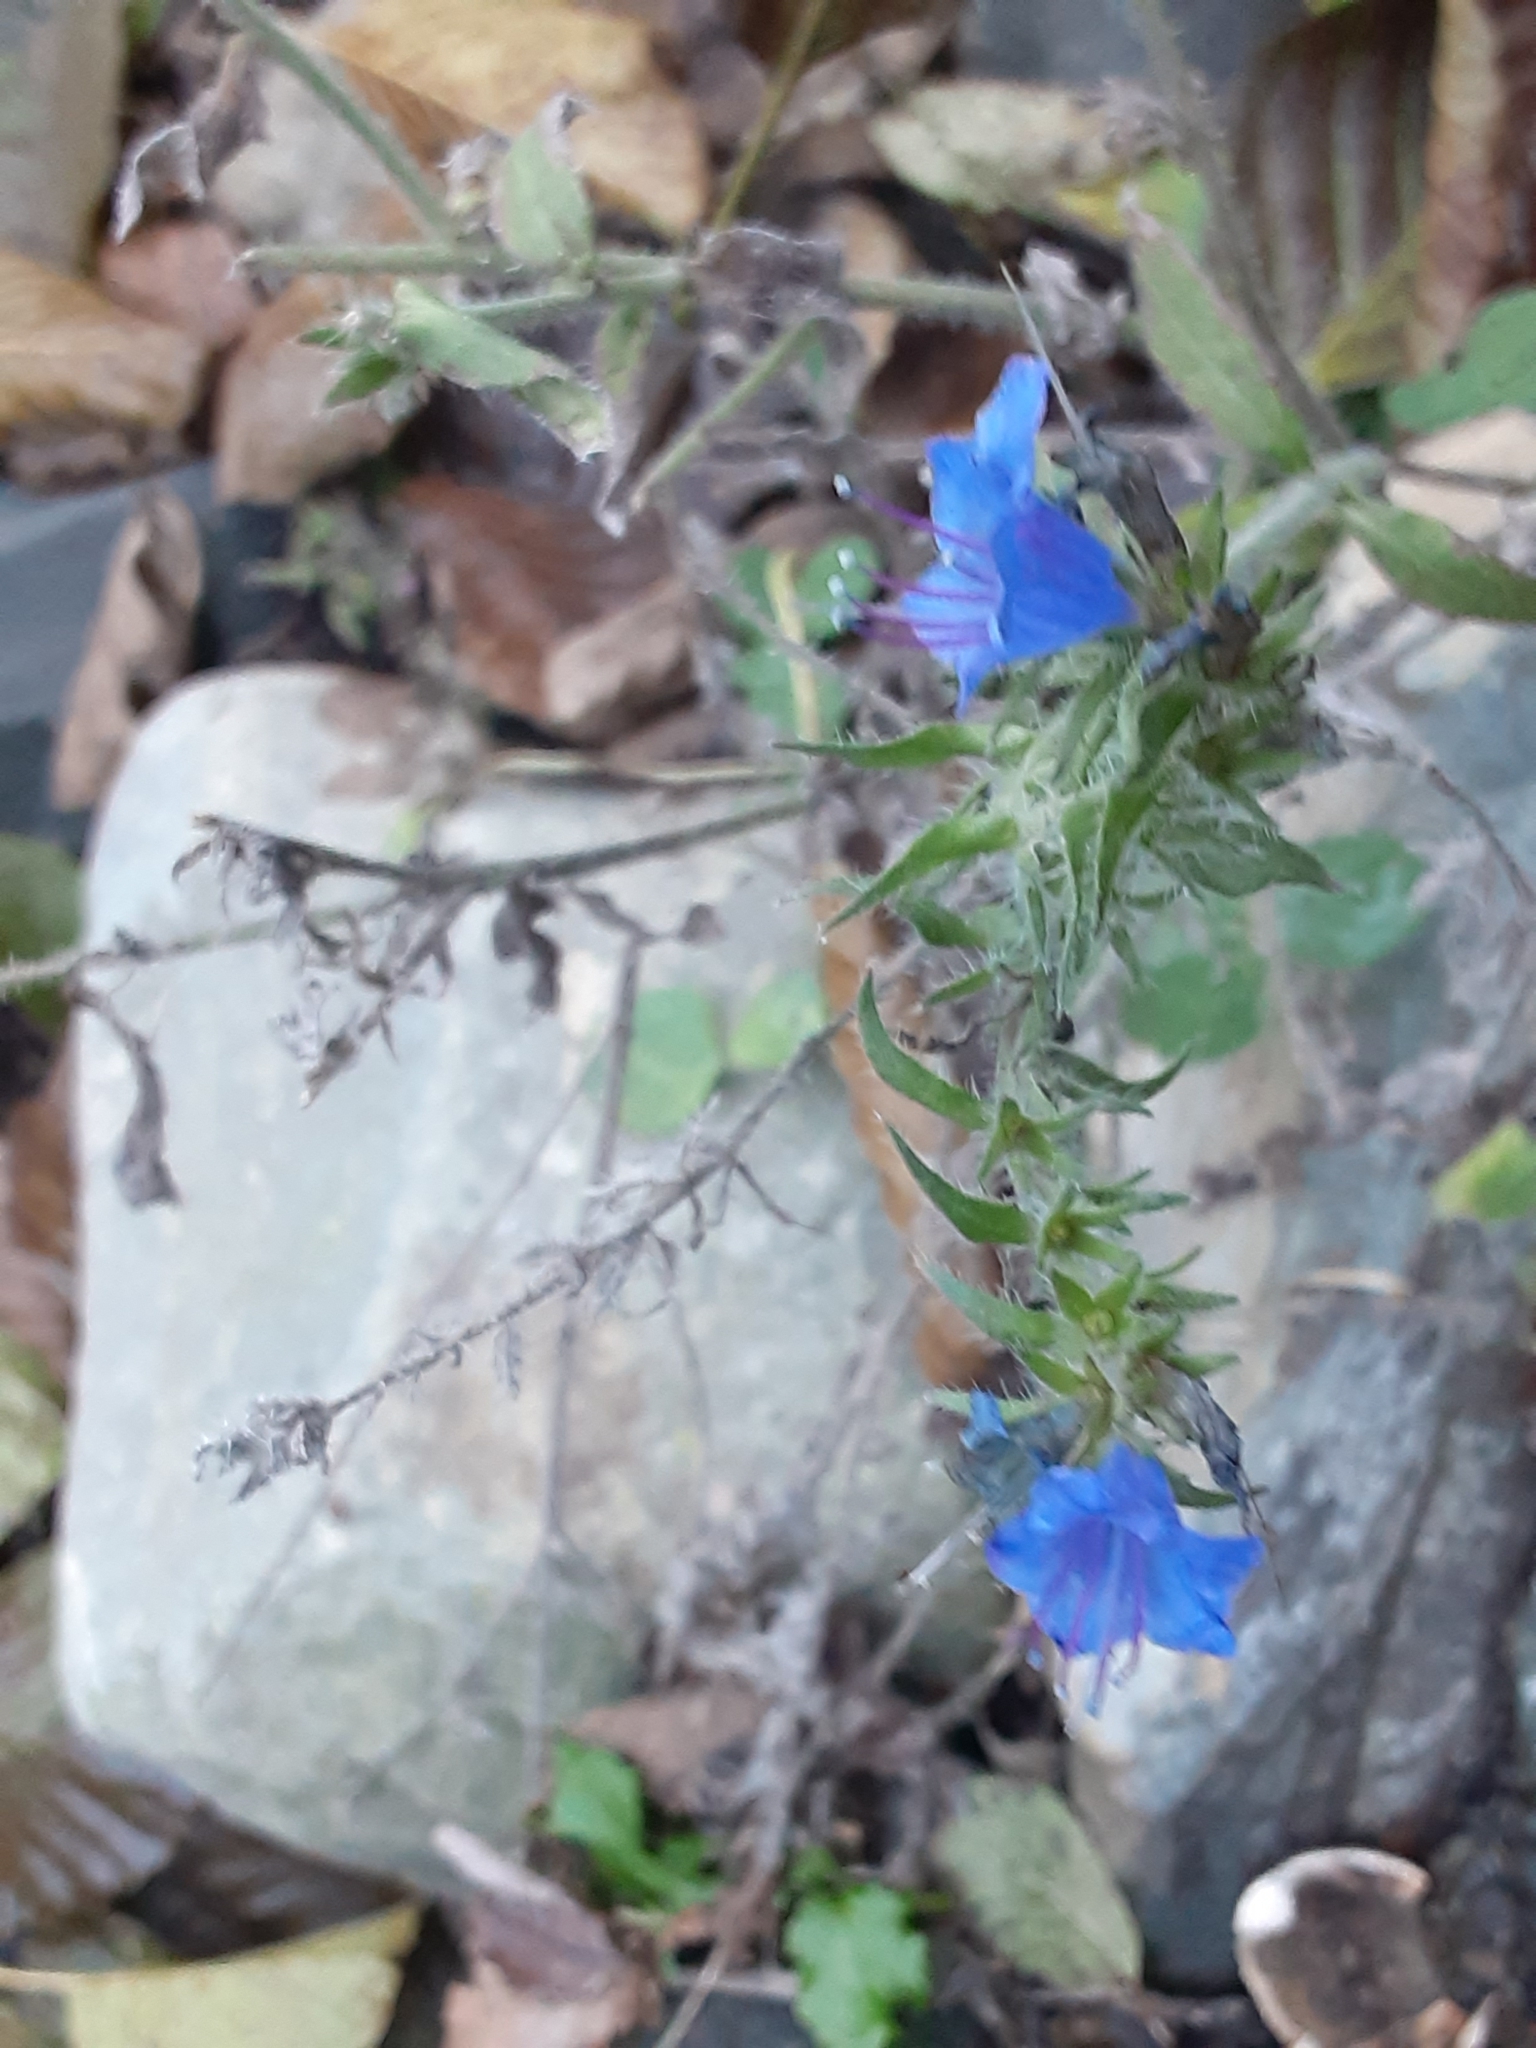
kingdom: Plantae
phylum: Tracheophyta
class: Magnoliopsida
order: Boraginales
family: Boraginaceae
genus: Echium
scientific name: Echium vulgare
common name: Common viper's bugloss
